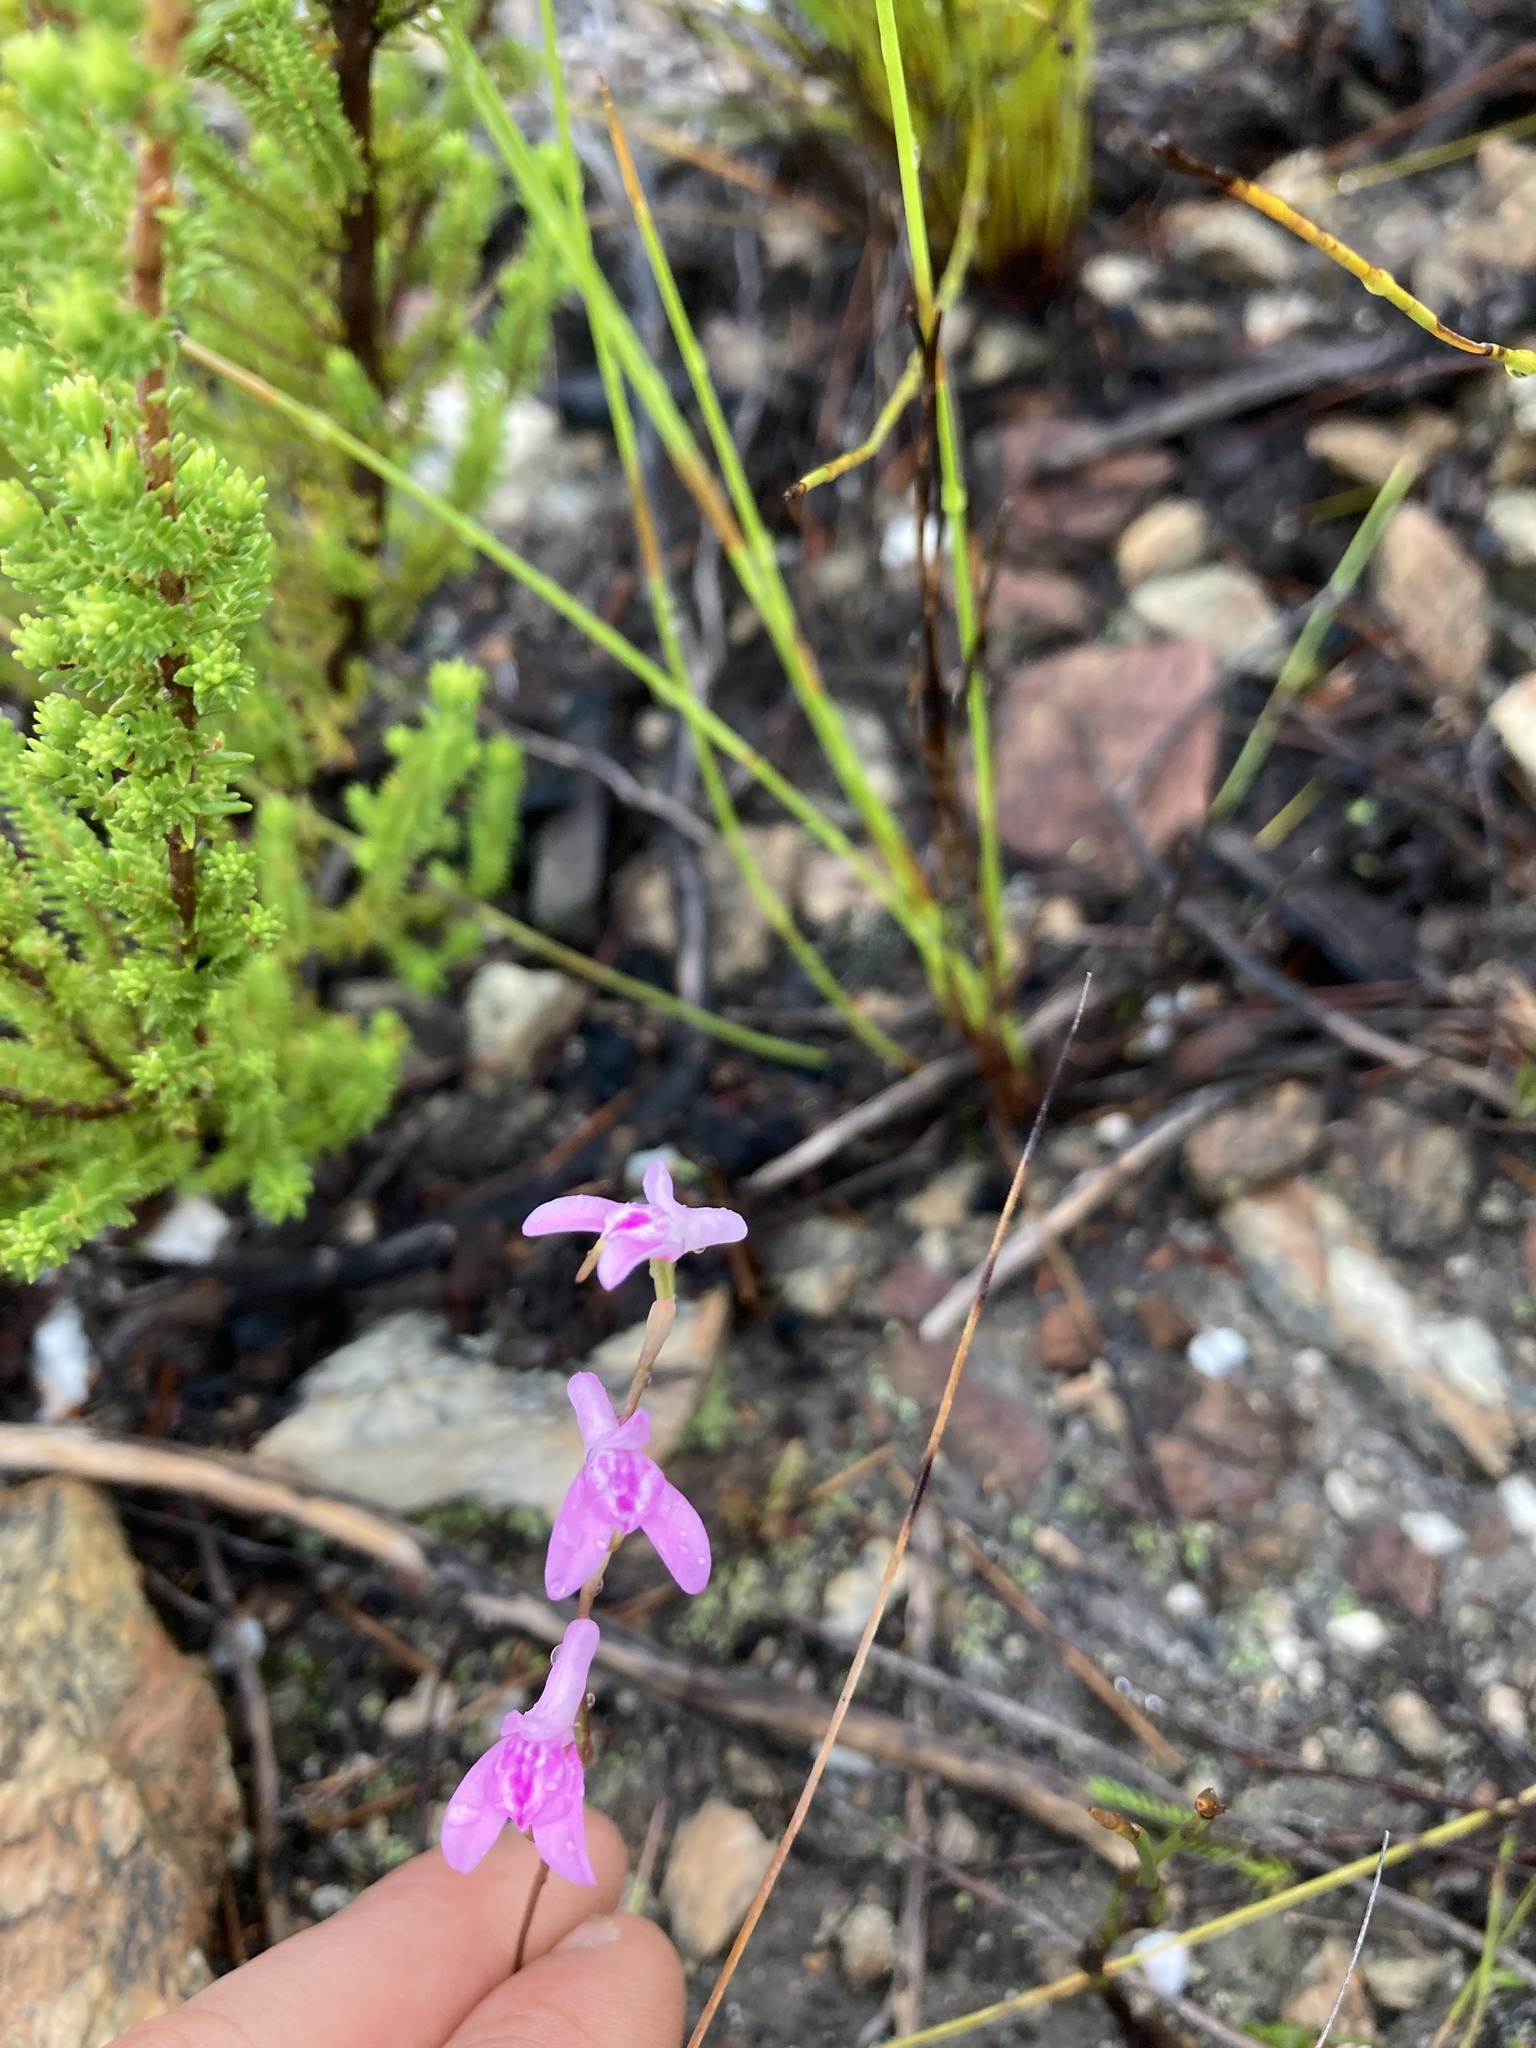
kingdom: Plantae
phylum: Tracheophyta
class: Liliopsida
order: Asparagales
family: Orchidaceae
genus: Disa
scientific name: Disa inflexa
